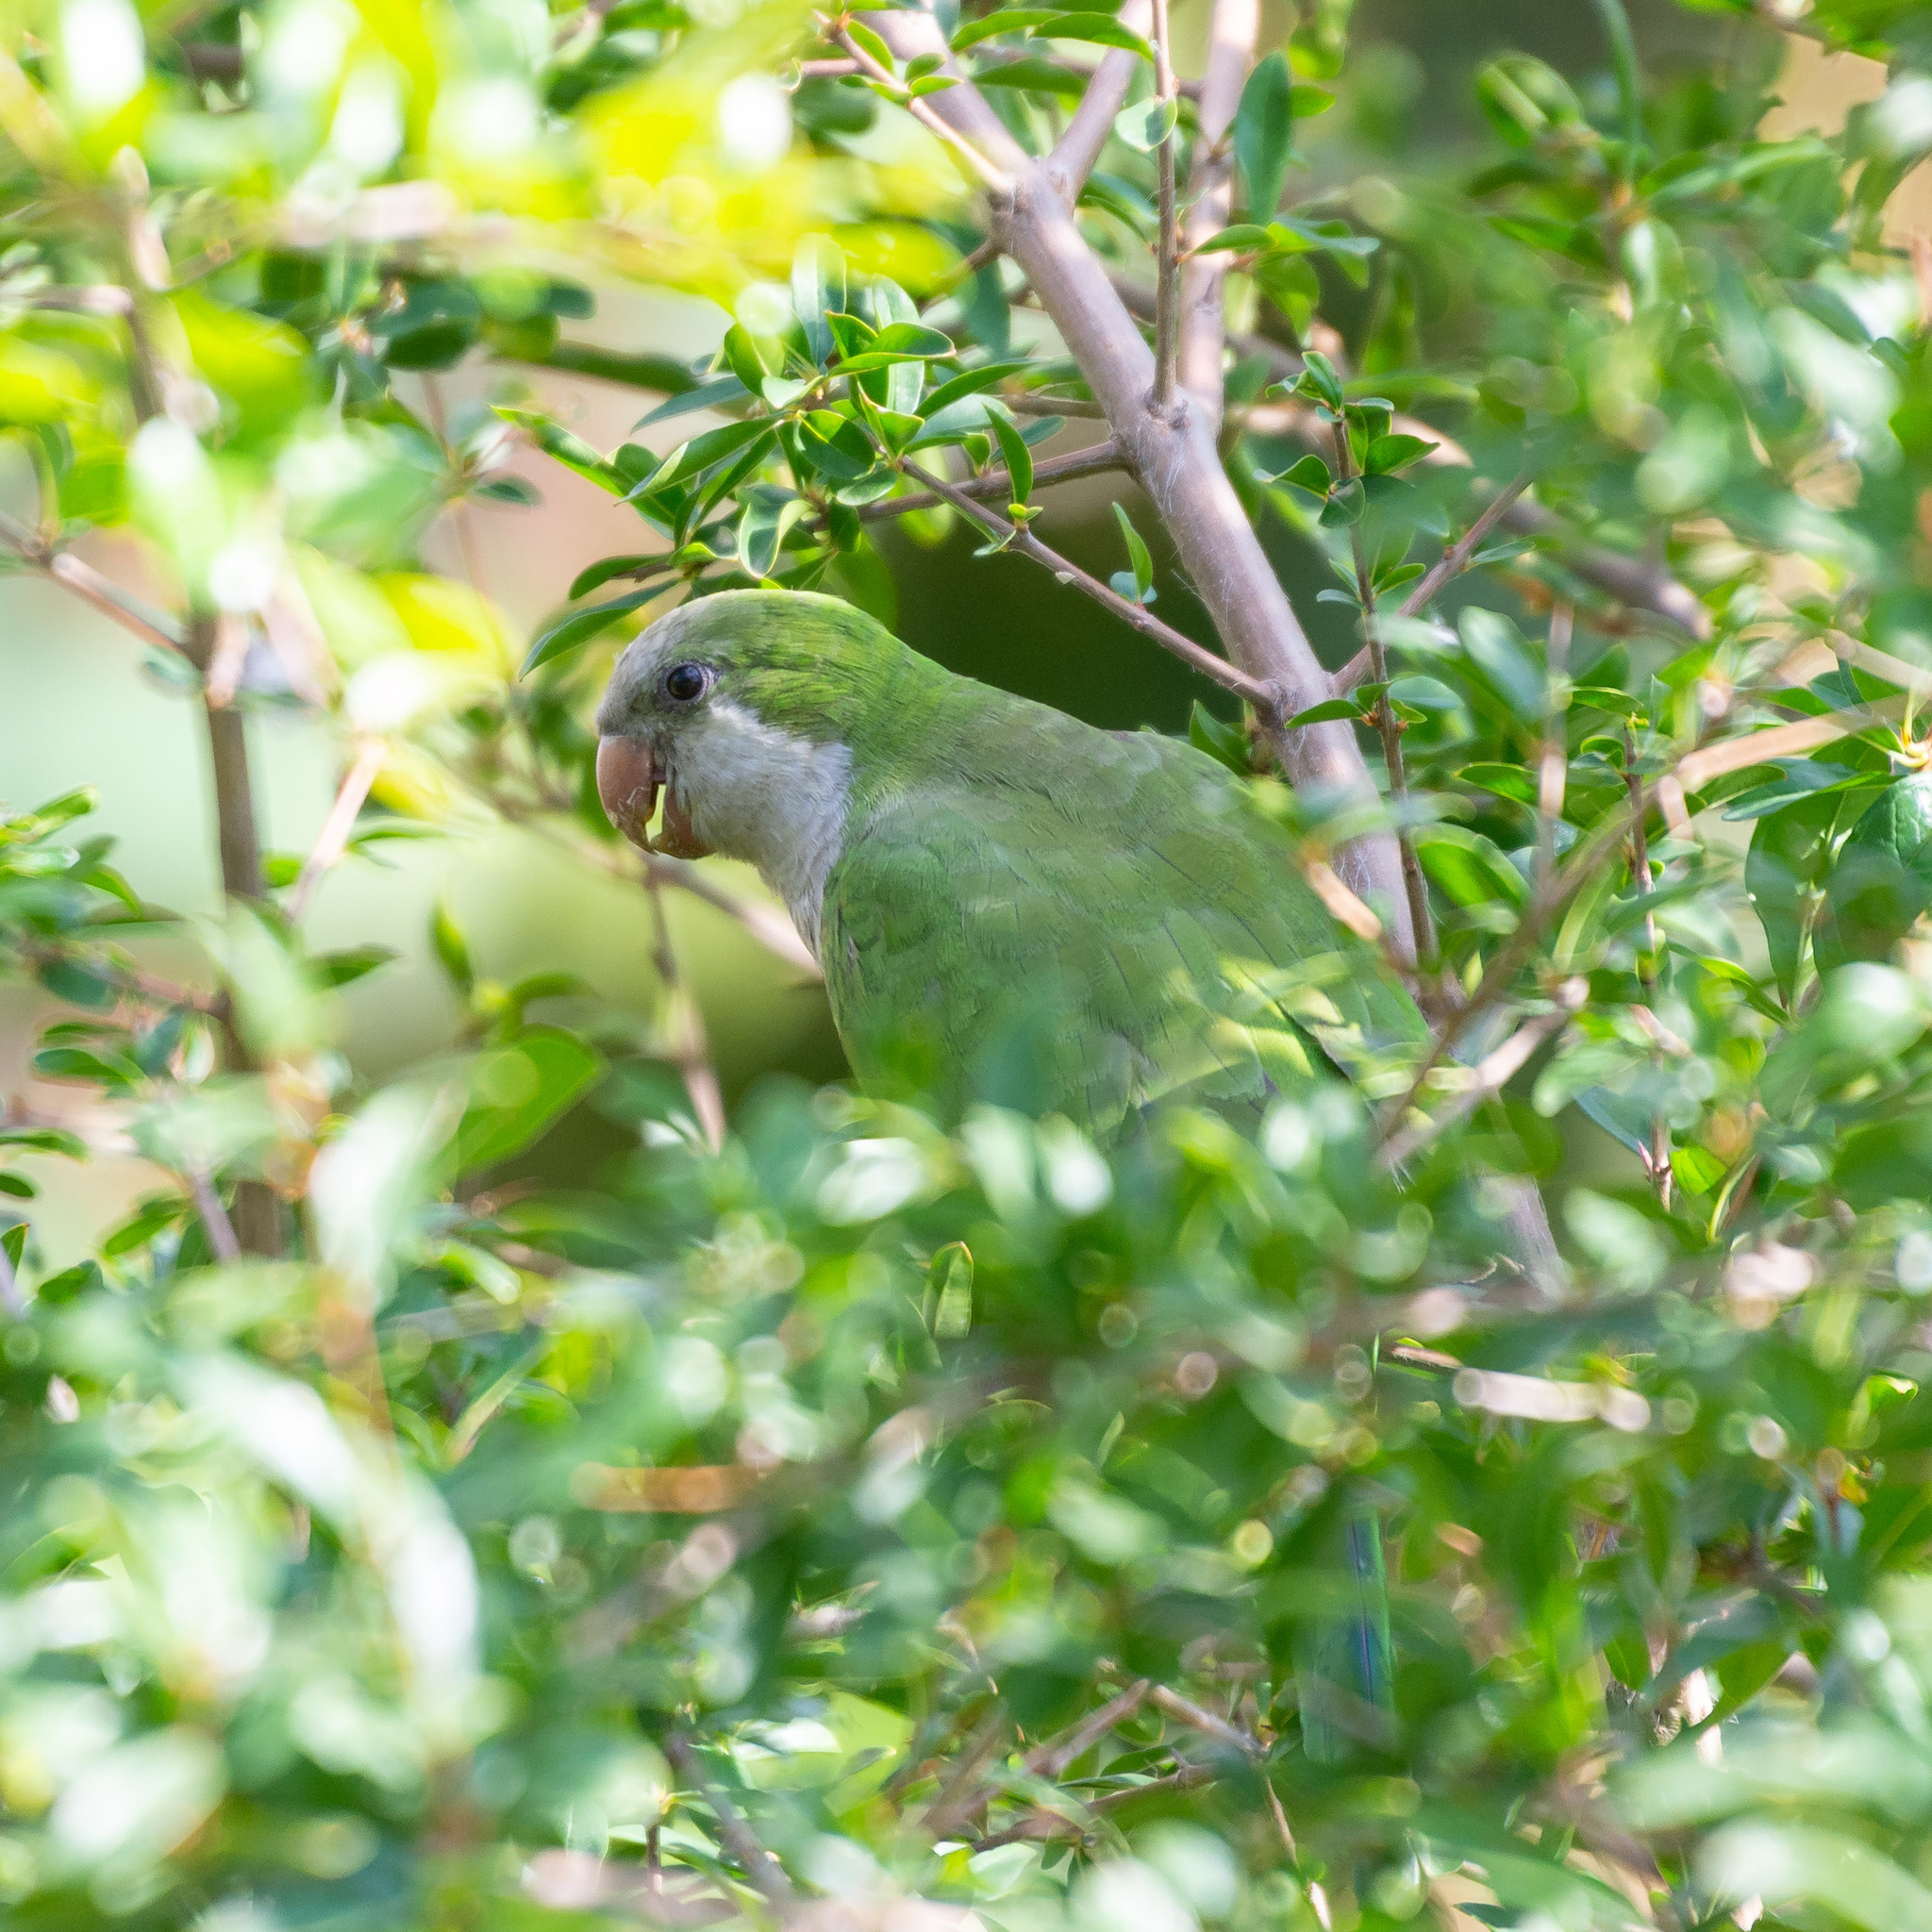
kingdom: Animalia
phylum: Chordata
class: Aves
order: Psittaciformes
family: Psittacidae
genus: Myiopsitta
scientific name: Myiopsitta monachus
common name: Monk parakeet
